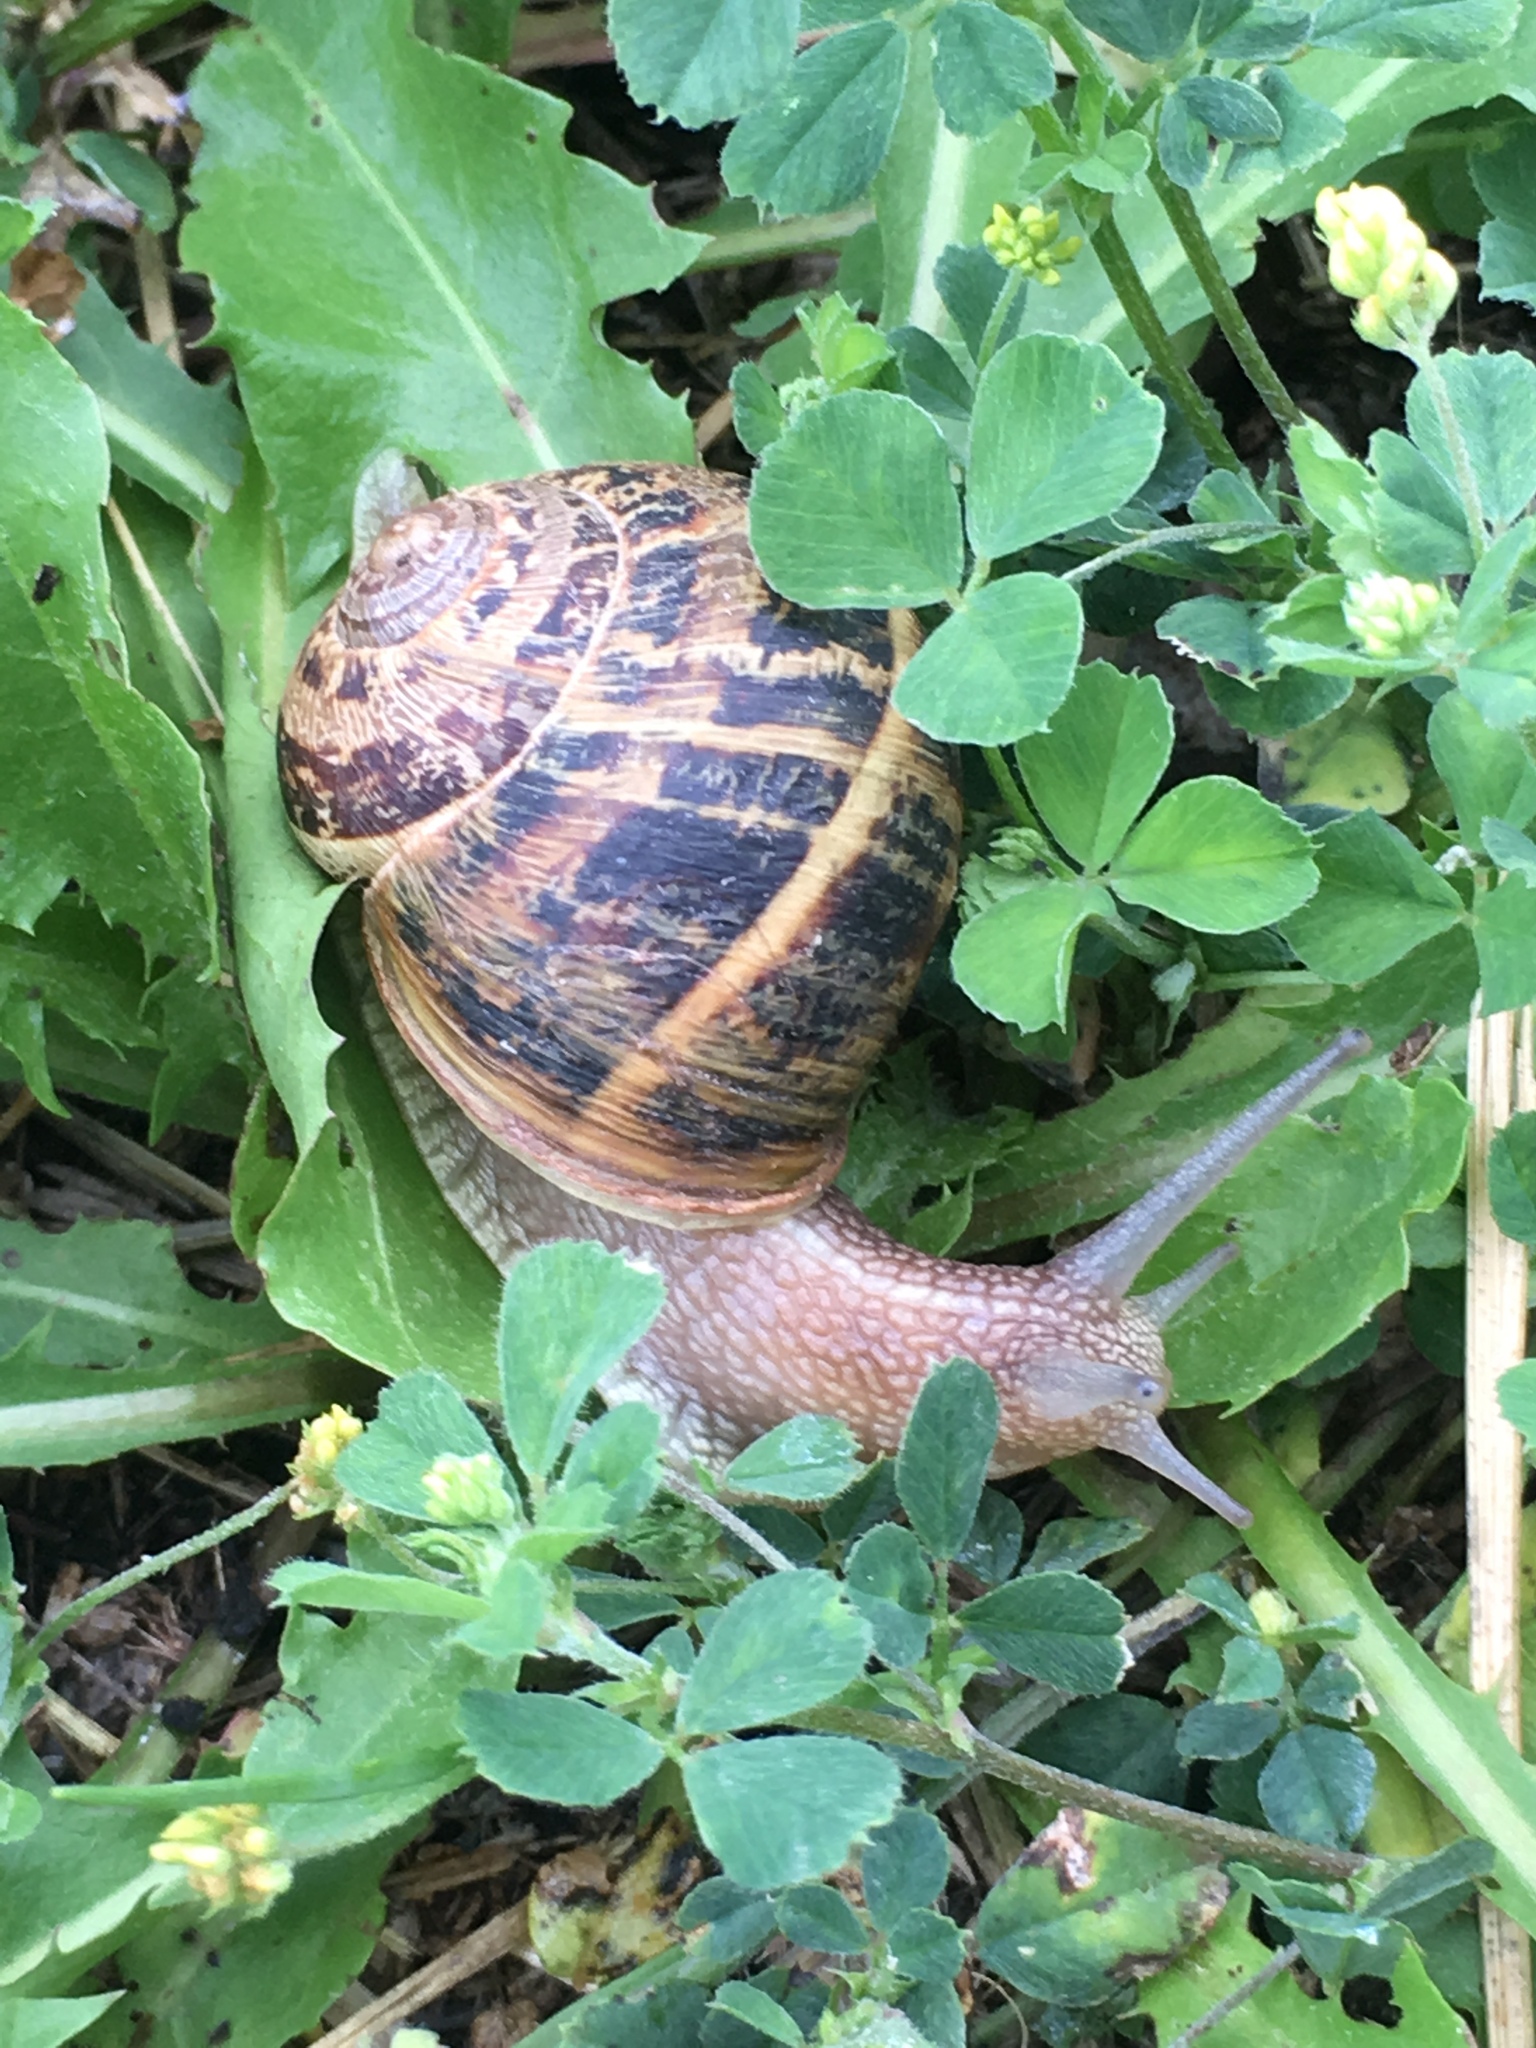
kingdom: Animalia
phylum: Mollusca
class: Gastropoda
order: Stylommatophora
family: Helicidae
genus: Cornu
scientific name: Cornu aspersum
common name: Brown garden snail
